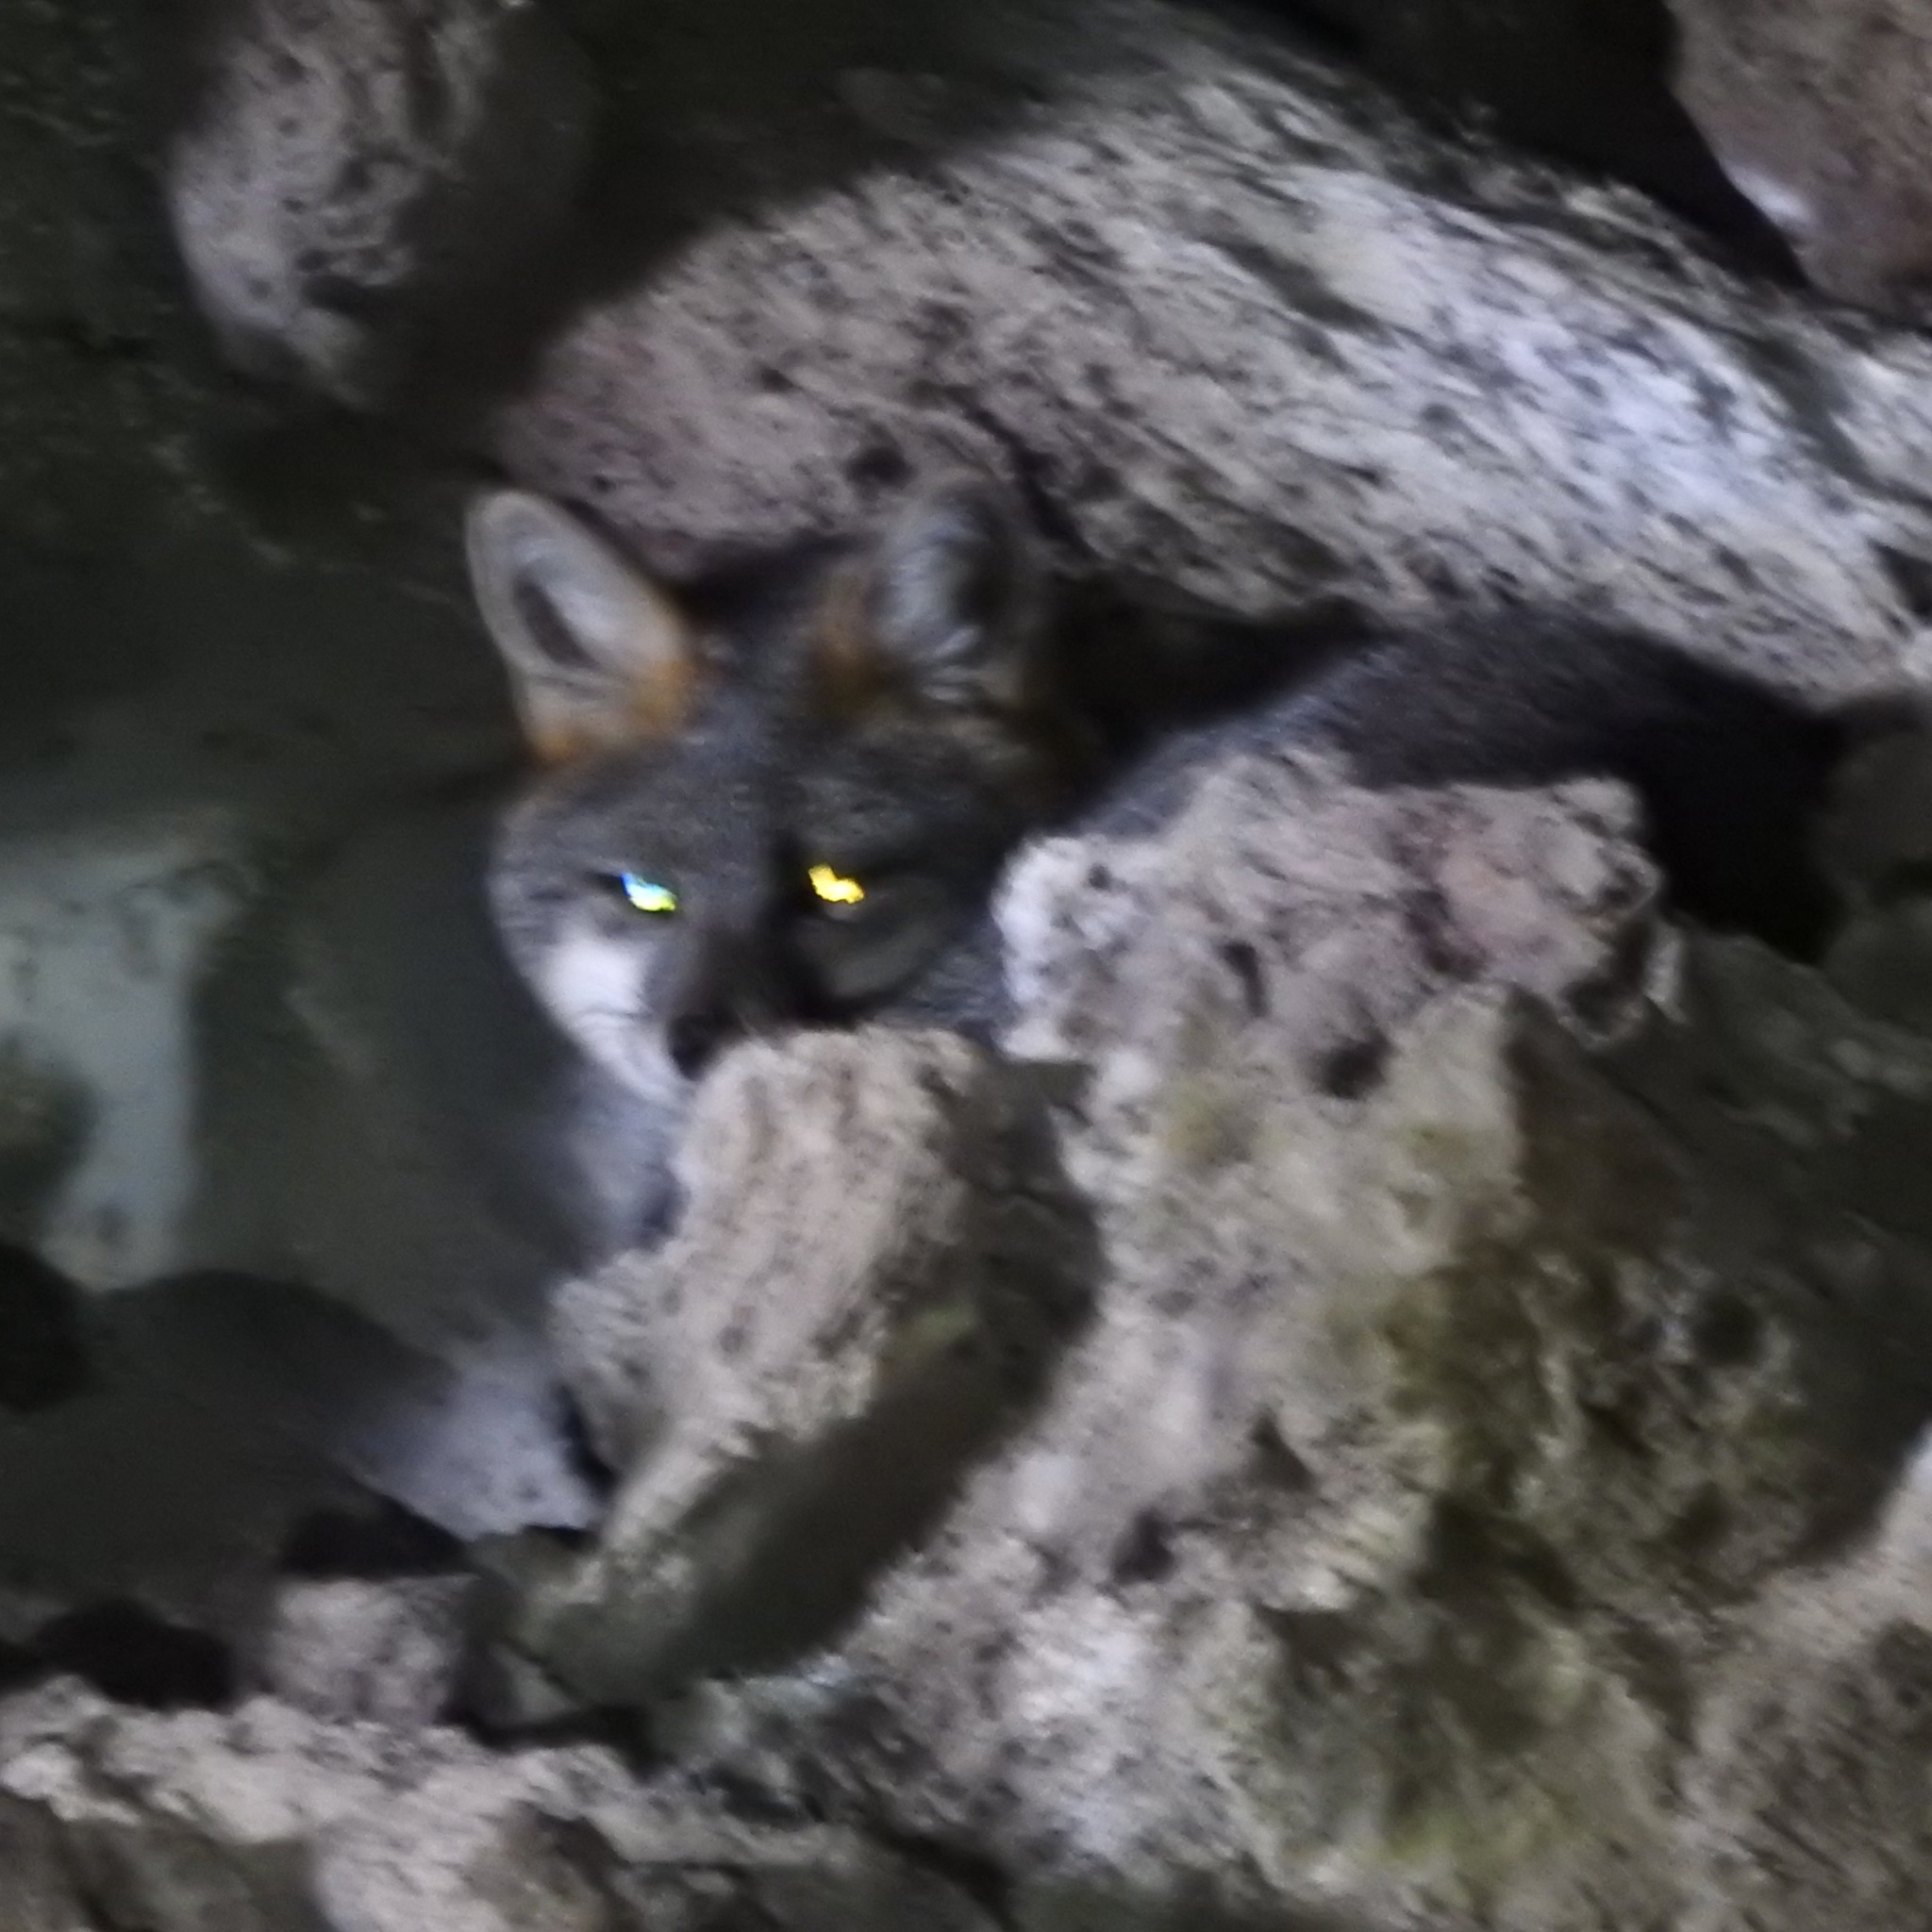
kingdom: Animalia
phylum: Chordata
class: Mammalia
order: Carnivora
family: Canidae
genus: Urocyon
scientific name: Urocyon cinereoargenteus
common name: Gray fox
